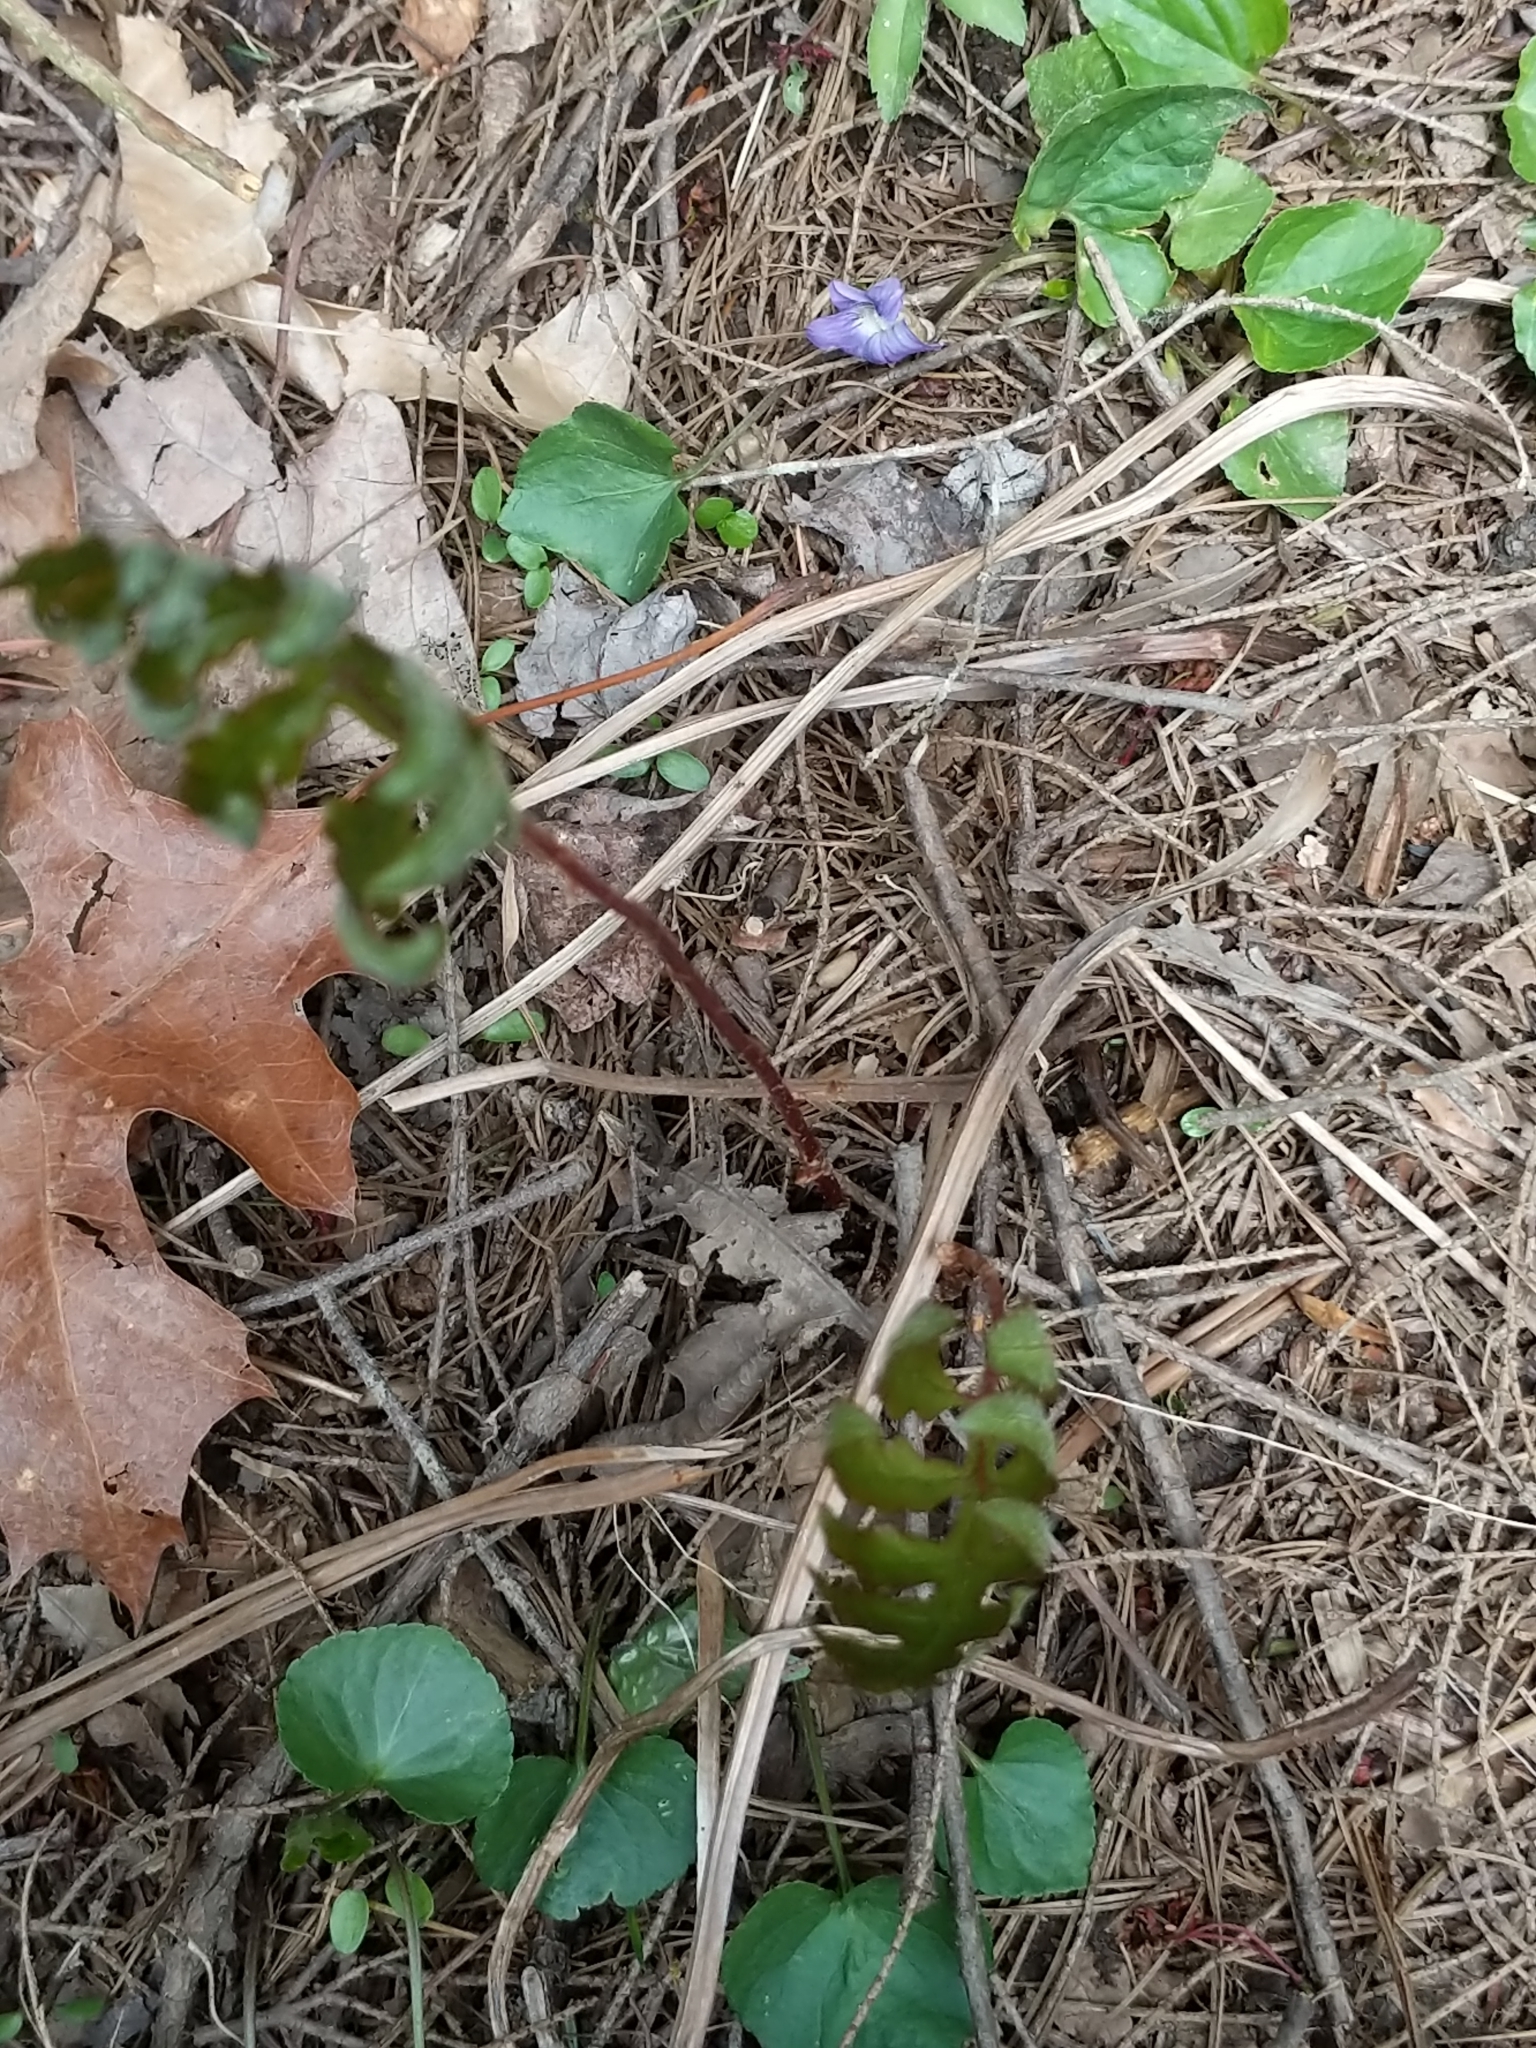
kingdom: Plantae
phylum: Tracheophyta
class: Polypodiopsida
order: Polypodiales
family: Onocleaceae
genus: Onoclea
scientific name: Onoclea sensibilis
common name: Sensitive fern
